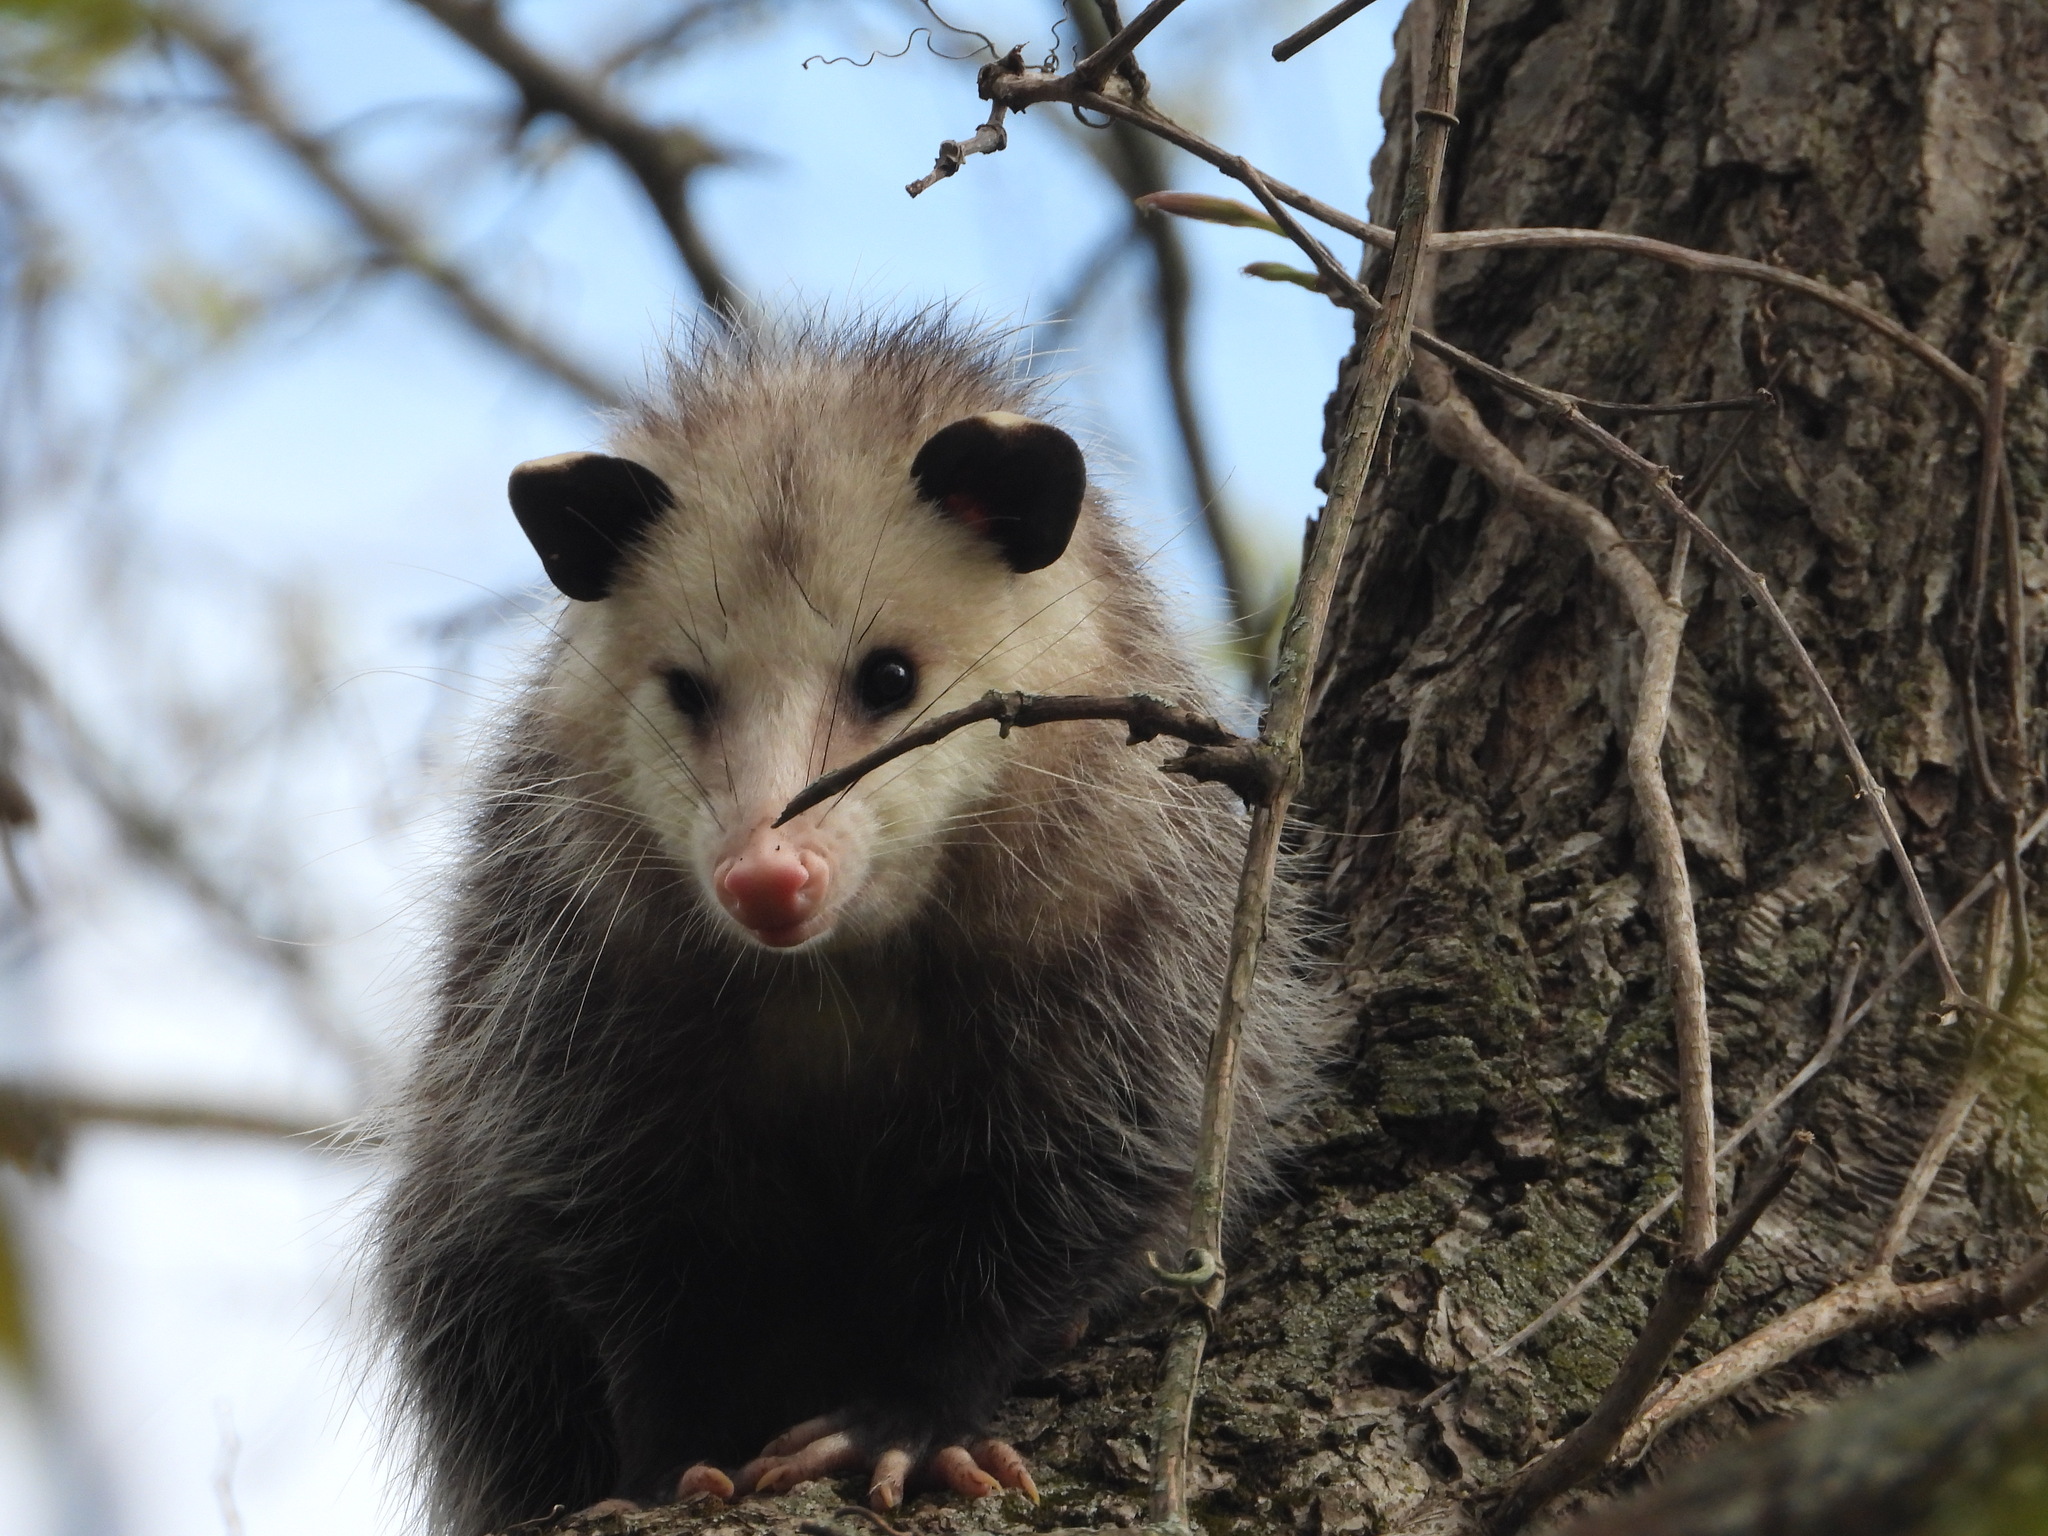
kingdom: Animalia
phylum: Chordata
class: Mammalia
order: Didelphimorphia
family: Didelphidae
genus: Didelphis
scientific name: Didelphis virginiana
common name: Virginia opossum
